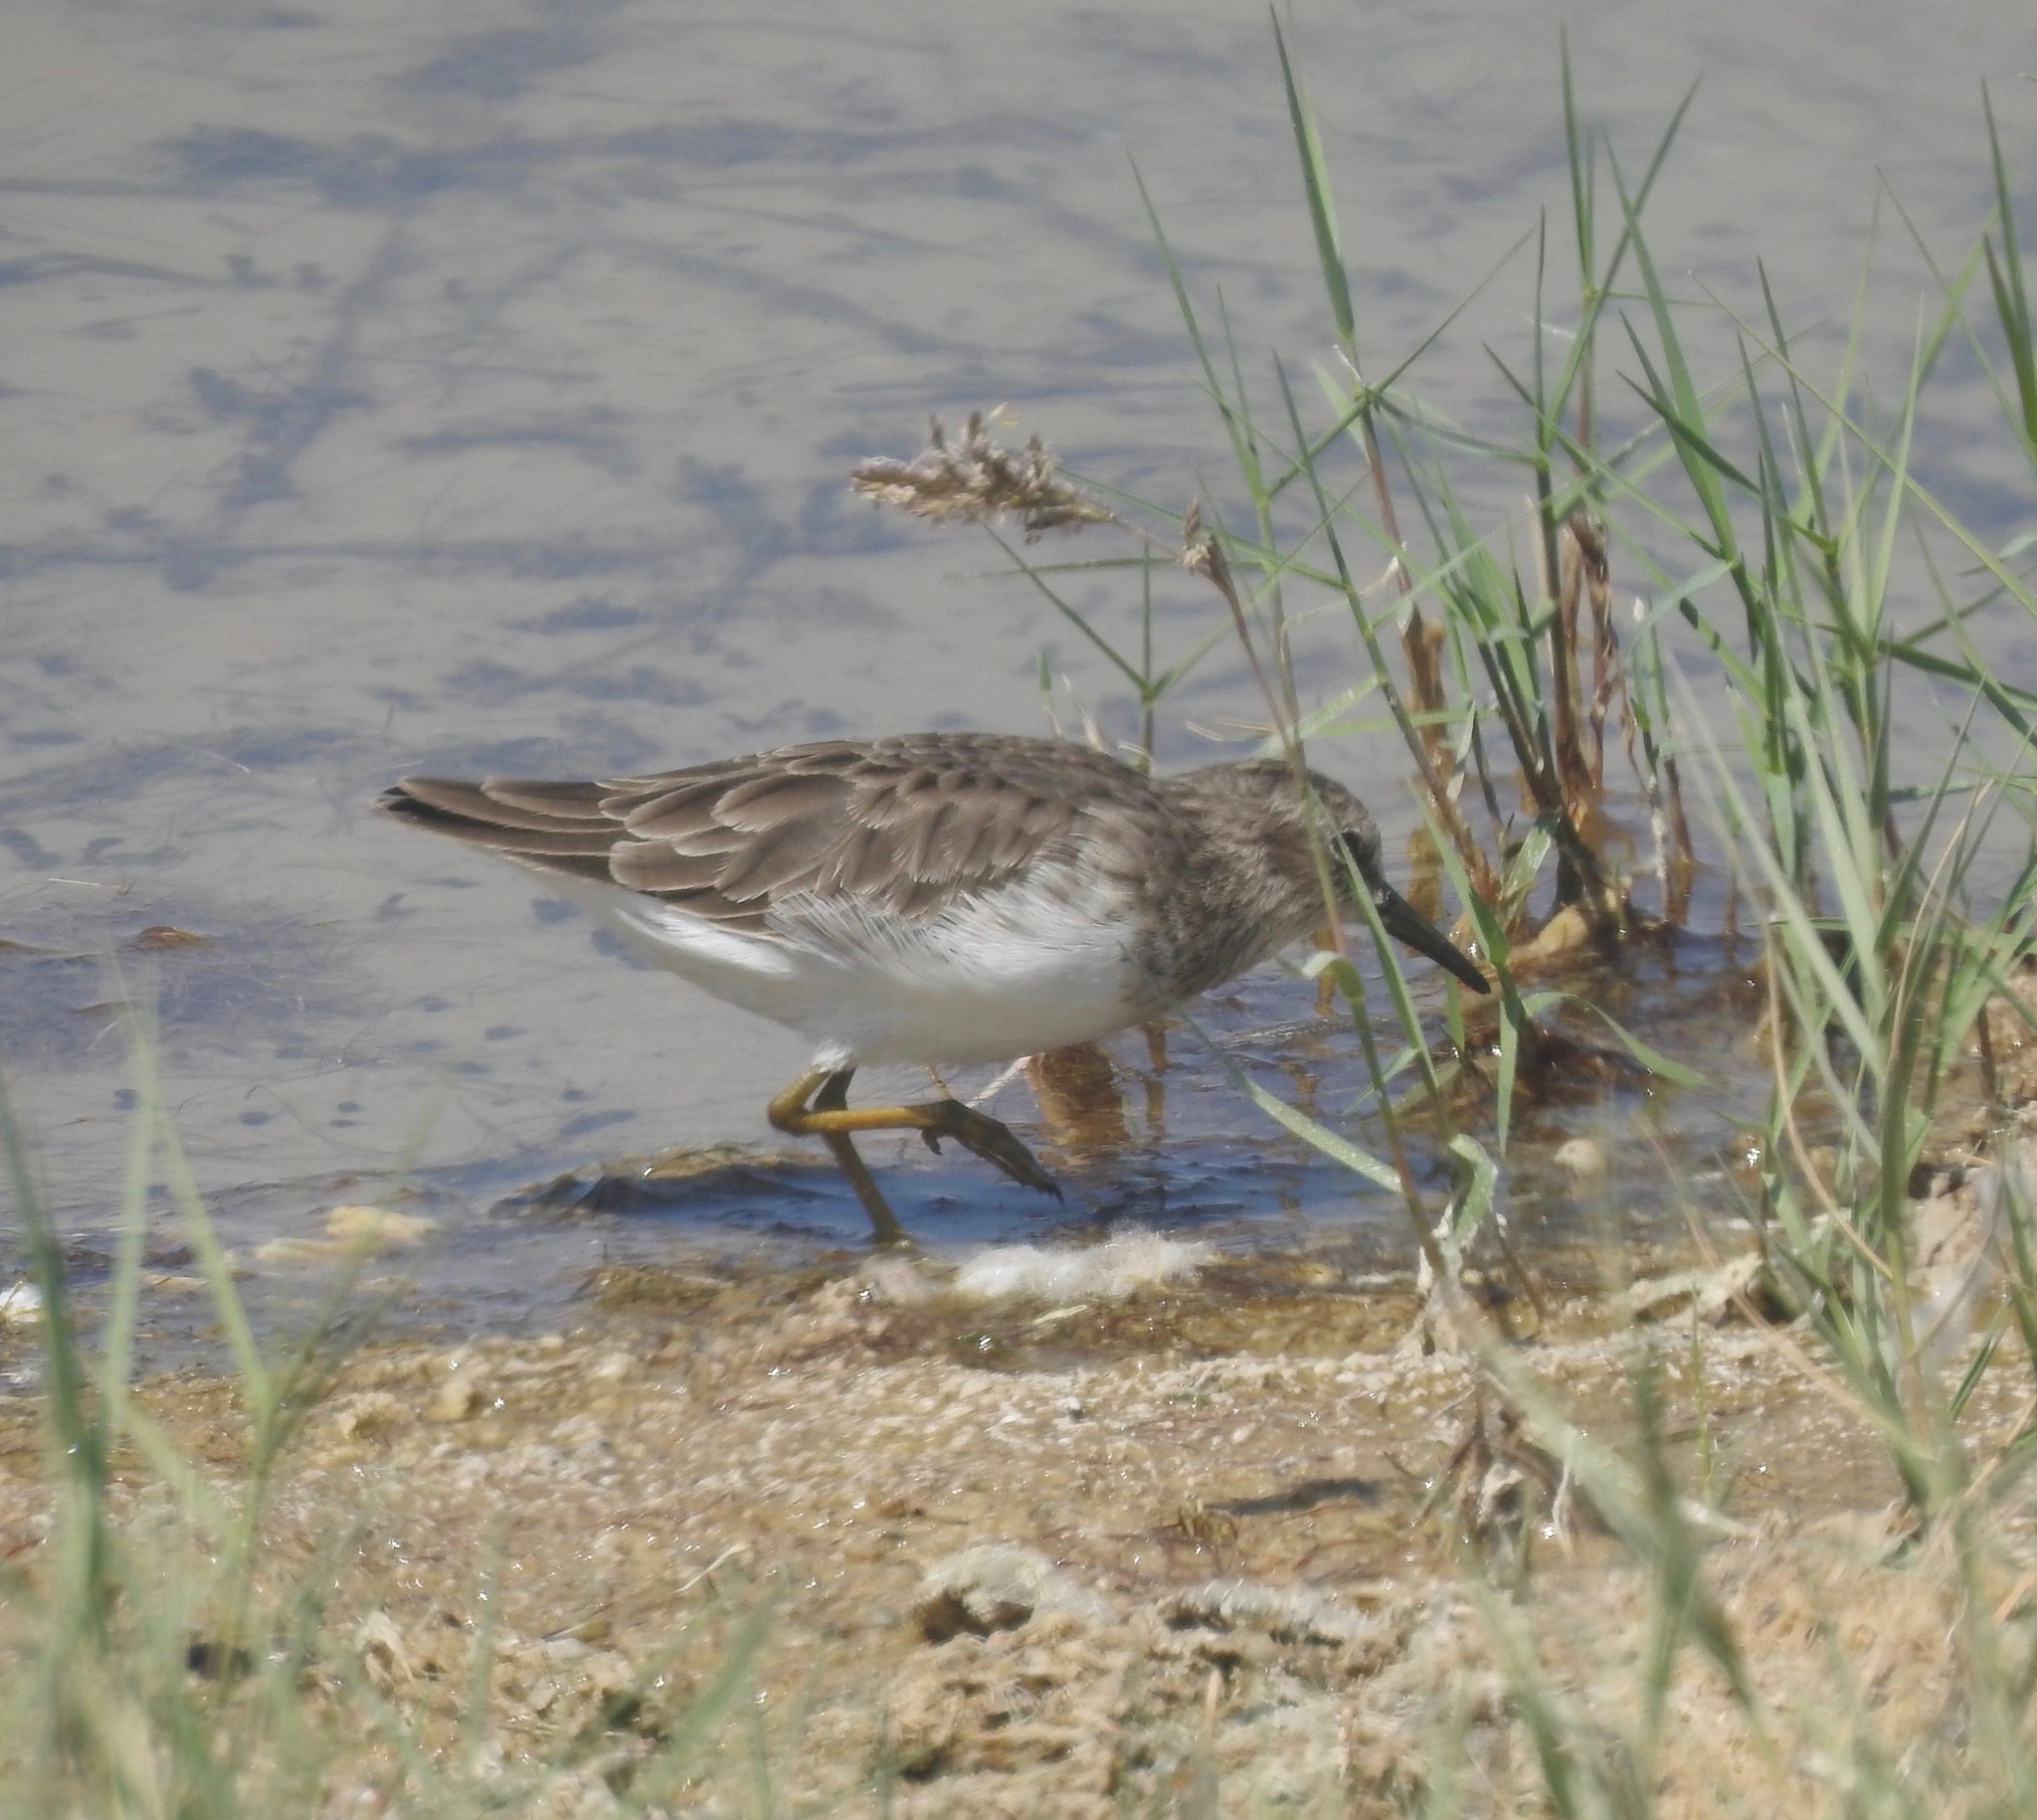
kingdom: Animalia
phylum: Chordata
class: Aves
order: Charadriiformes
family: Scolopacidae
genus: Calidris
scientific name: Calidris minutilla
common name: Least sandpiper
